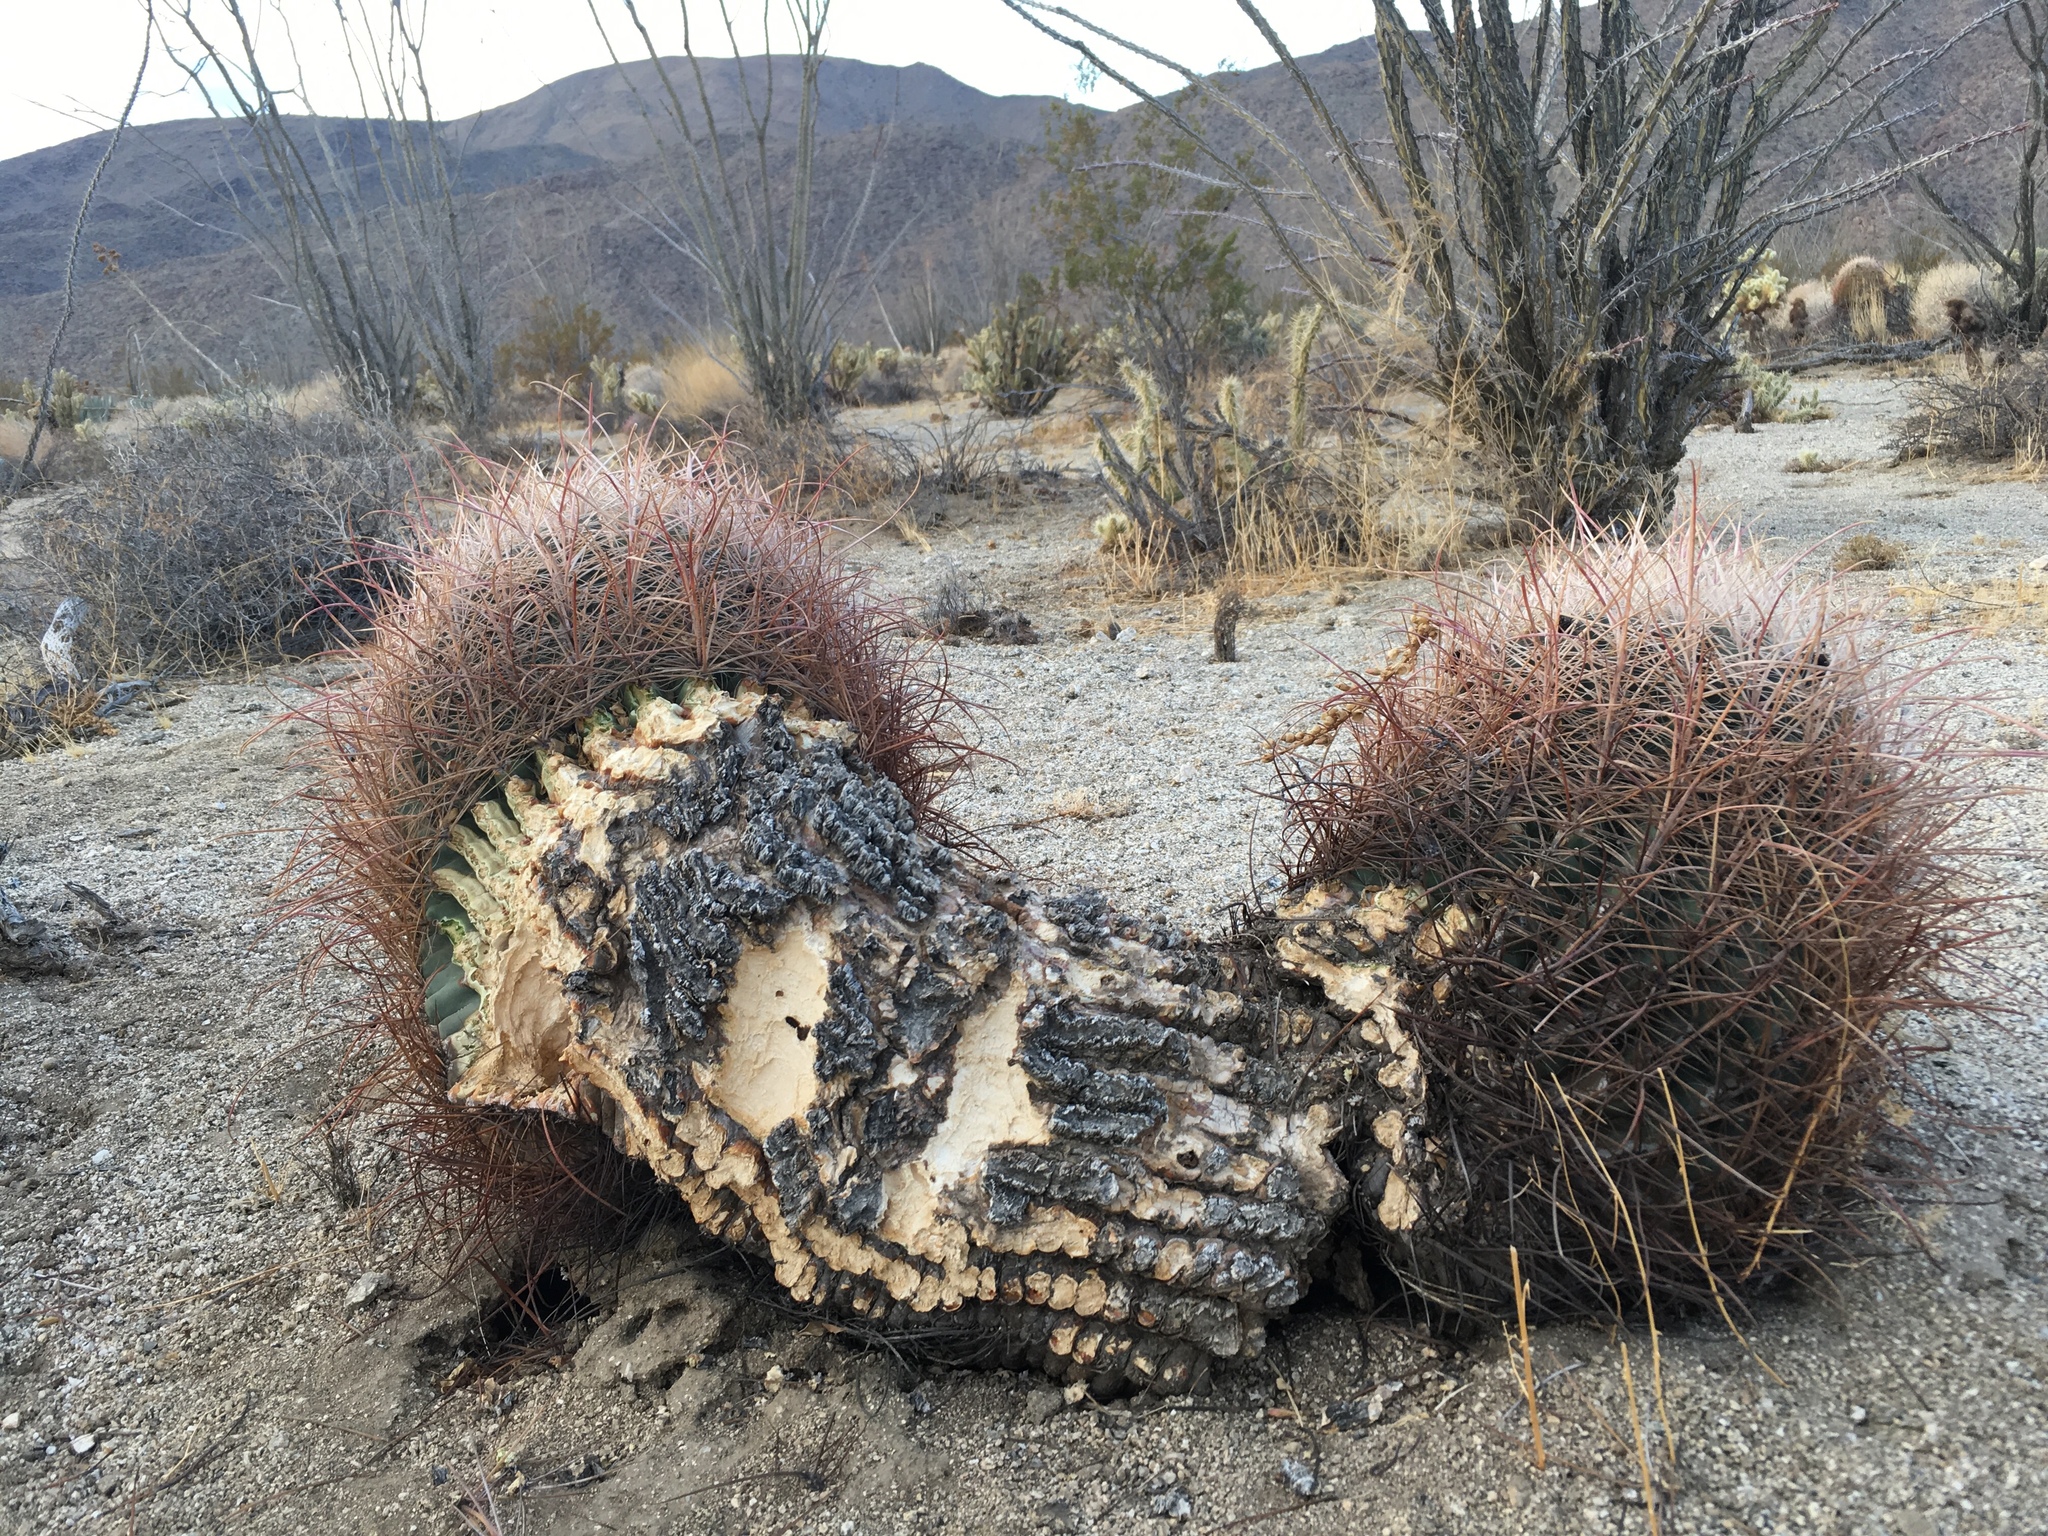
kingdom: Plantae
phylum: Tracheophyta
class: Magnoliopsida
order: Caryophyllales
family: Cactaceae
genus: Ferocactus
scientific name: Ferocactus cylindraceus
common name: California barrel cactus
